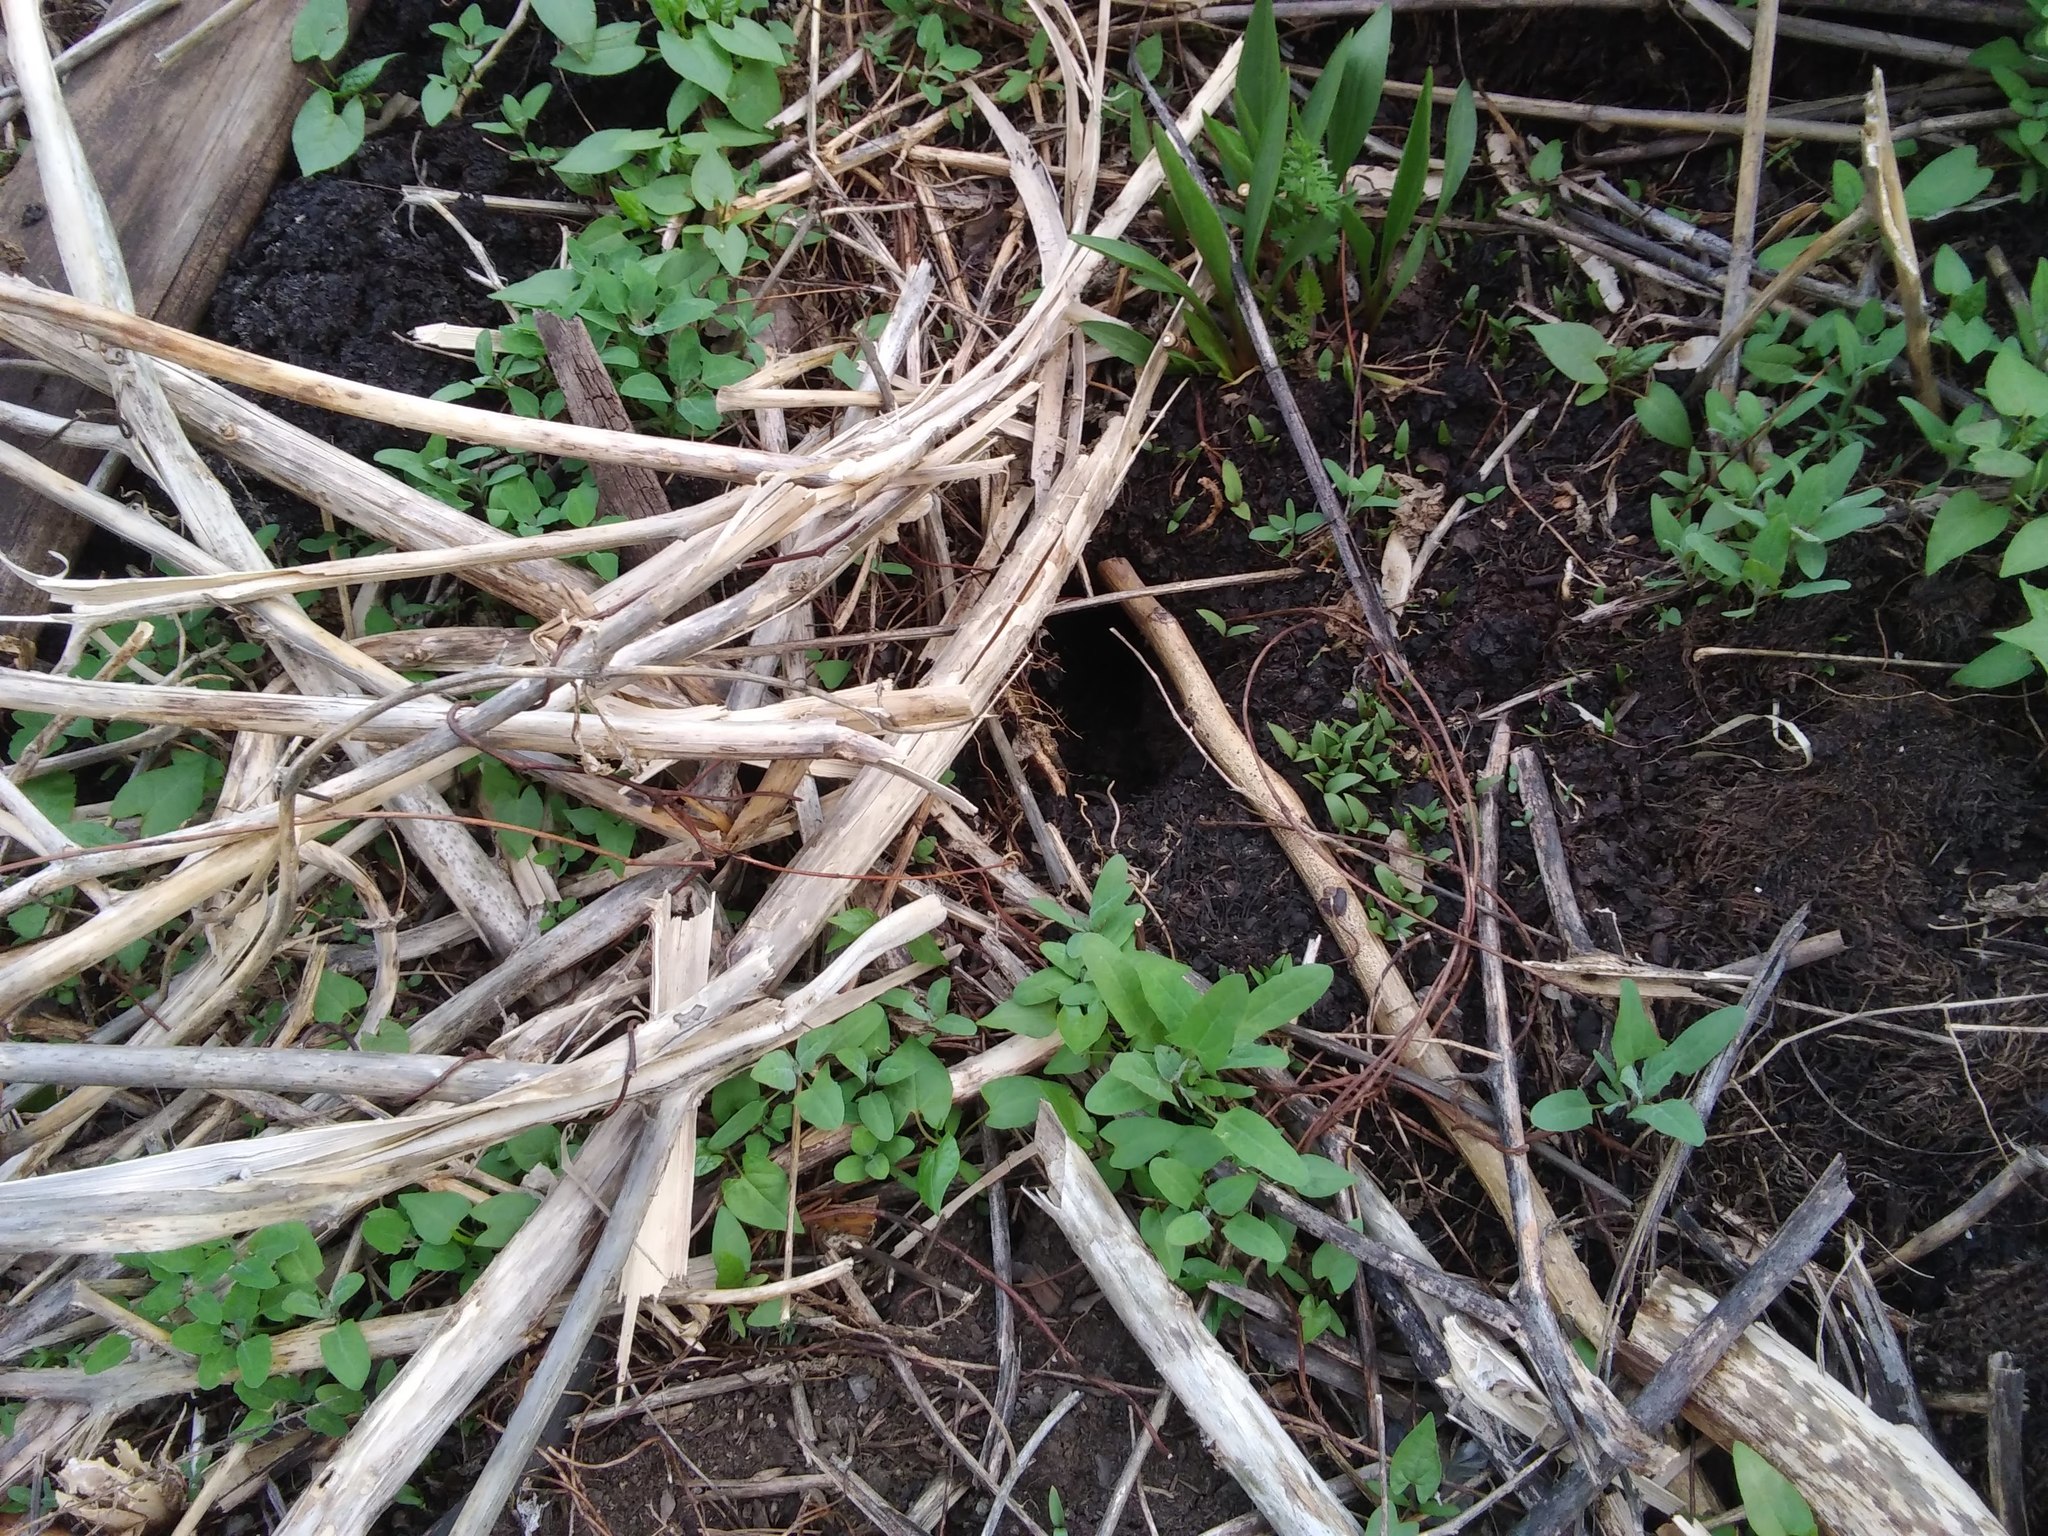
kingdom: Animalia
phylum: Chordata
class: Mammalia
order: Rodentia
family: Muridae
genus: Rattus
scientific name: Rattus norvegicus
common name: Brown rat
